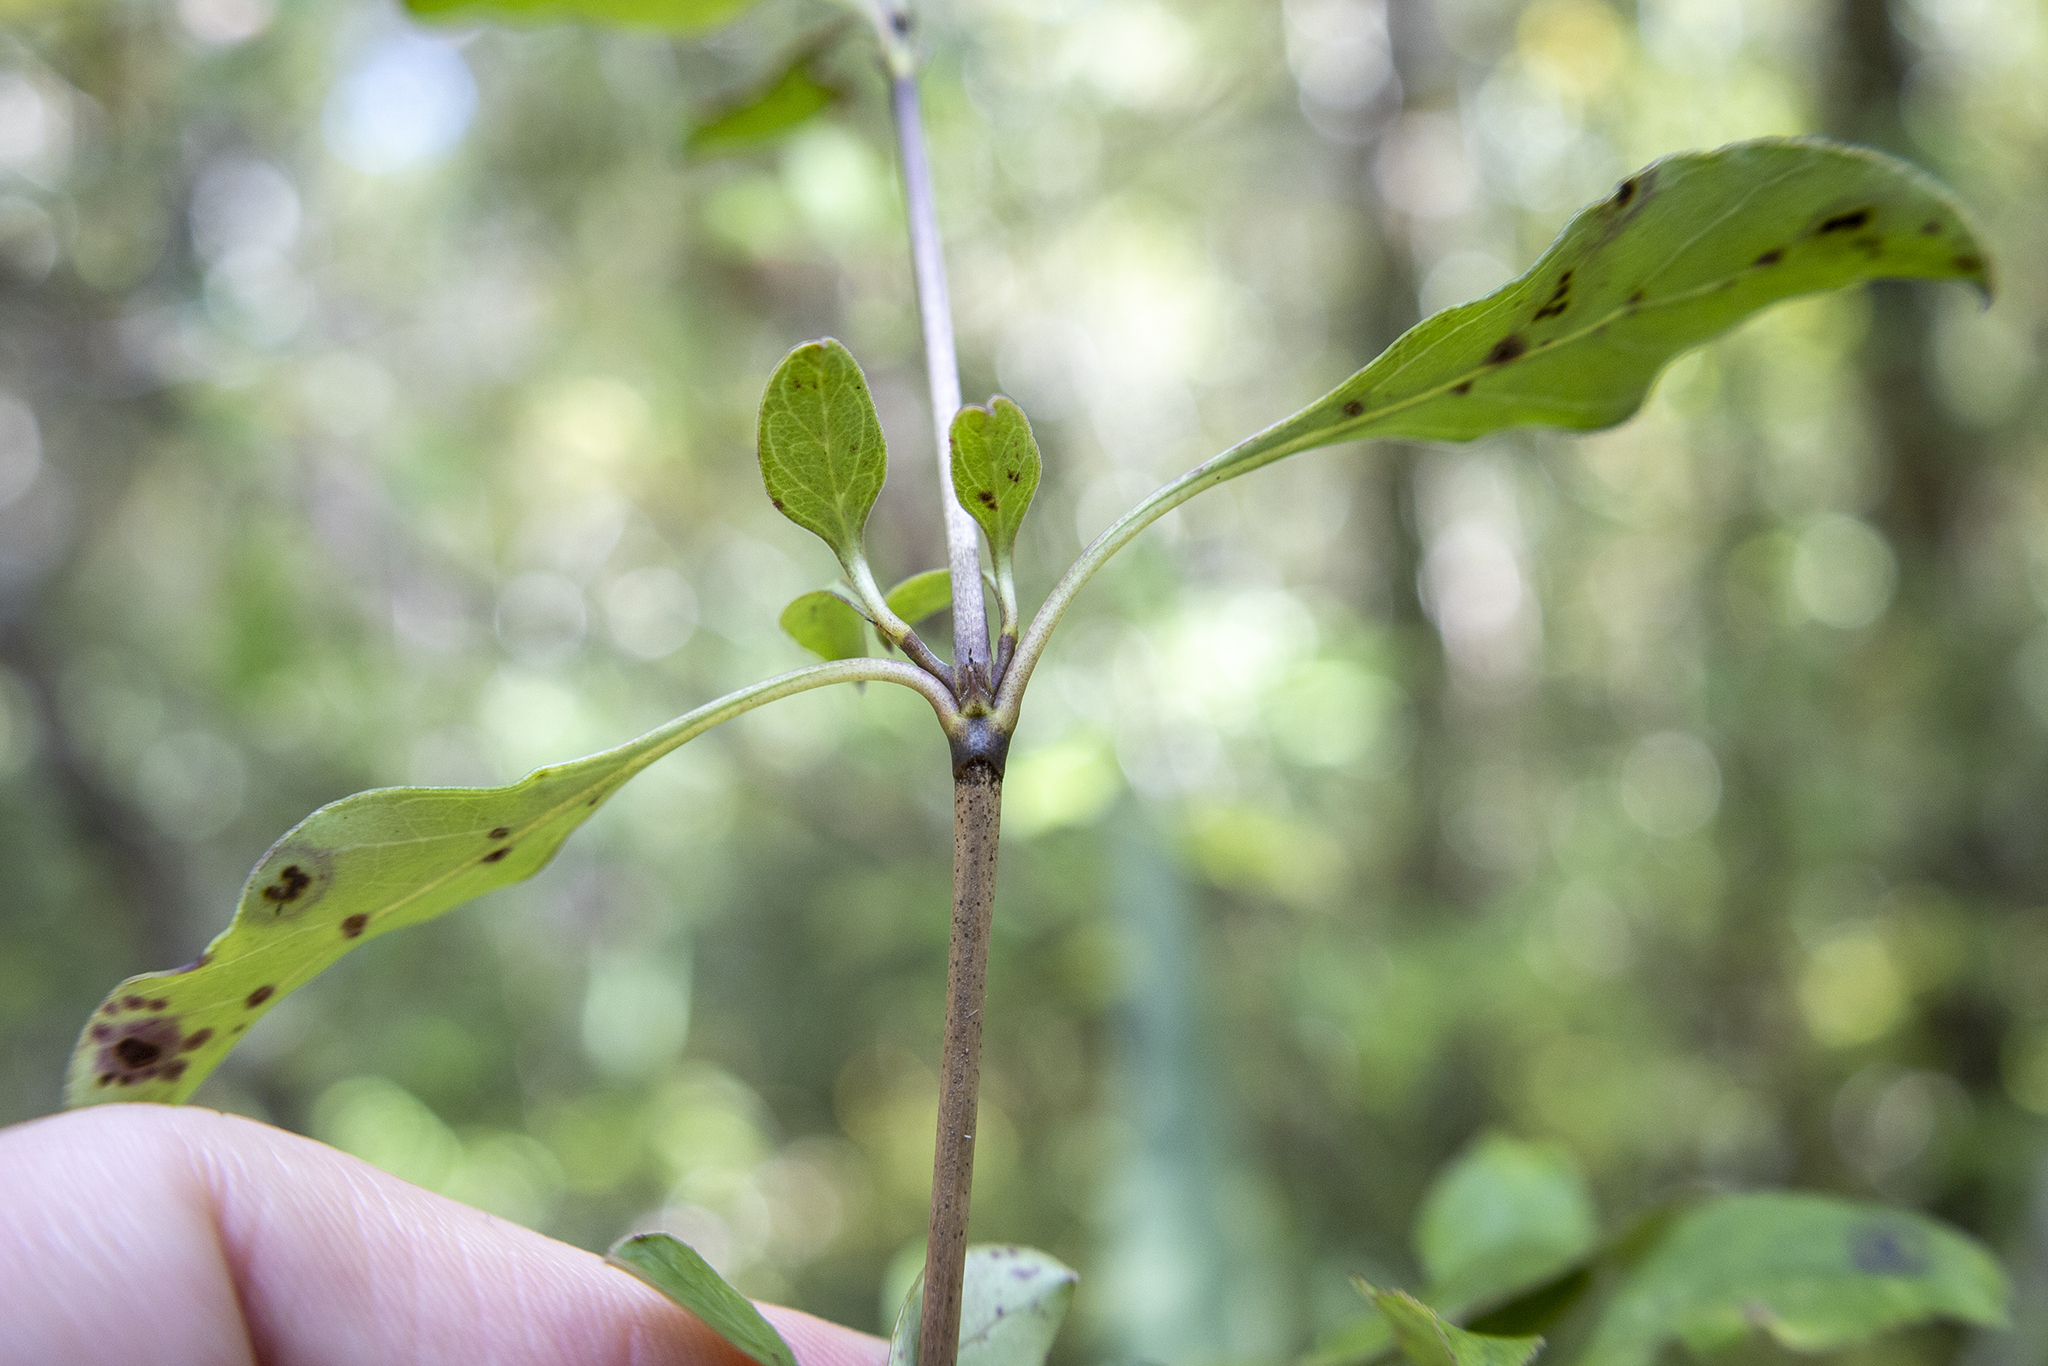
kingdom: Plantae
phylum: Tracheophyta
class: Magnoliopsida
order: Gentianales
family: Rubiaceae
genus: Coprosma
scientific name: Coprosma foetidissima
